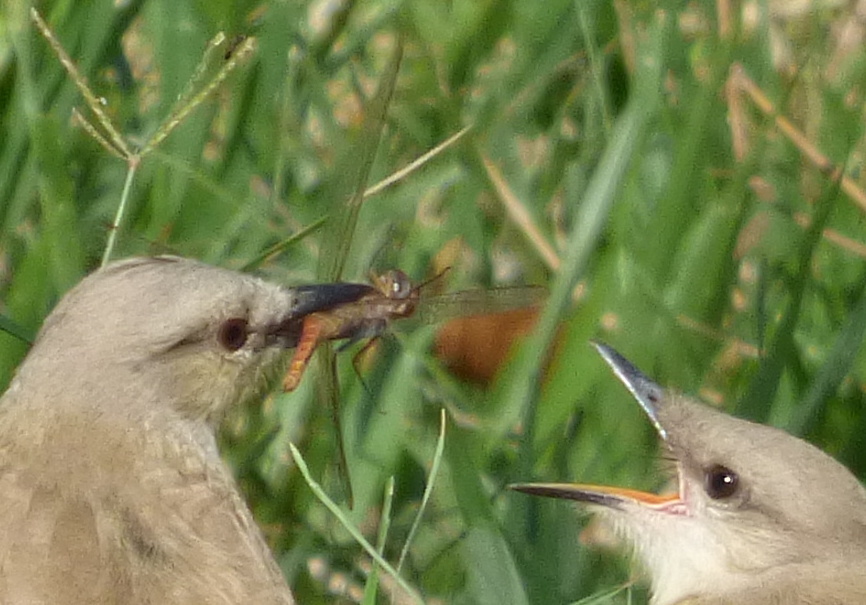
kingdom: Animalia
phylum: Arthropoda
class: Insecta
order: Odonata
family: Libellulidae
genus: Brachymesia
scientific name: Brachymesia furcata
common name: Red-taled pennant
